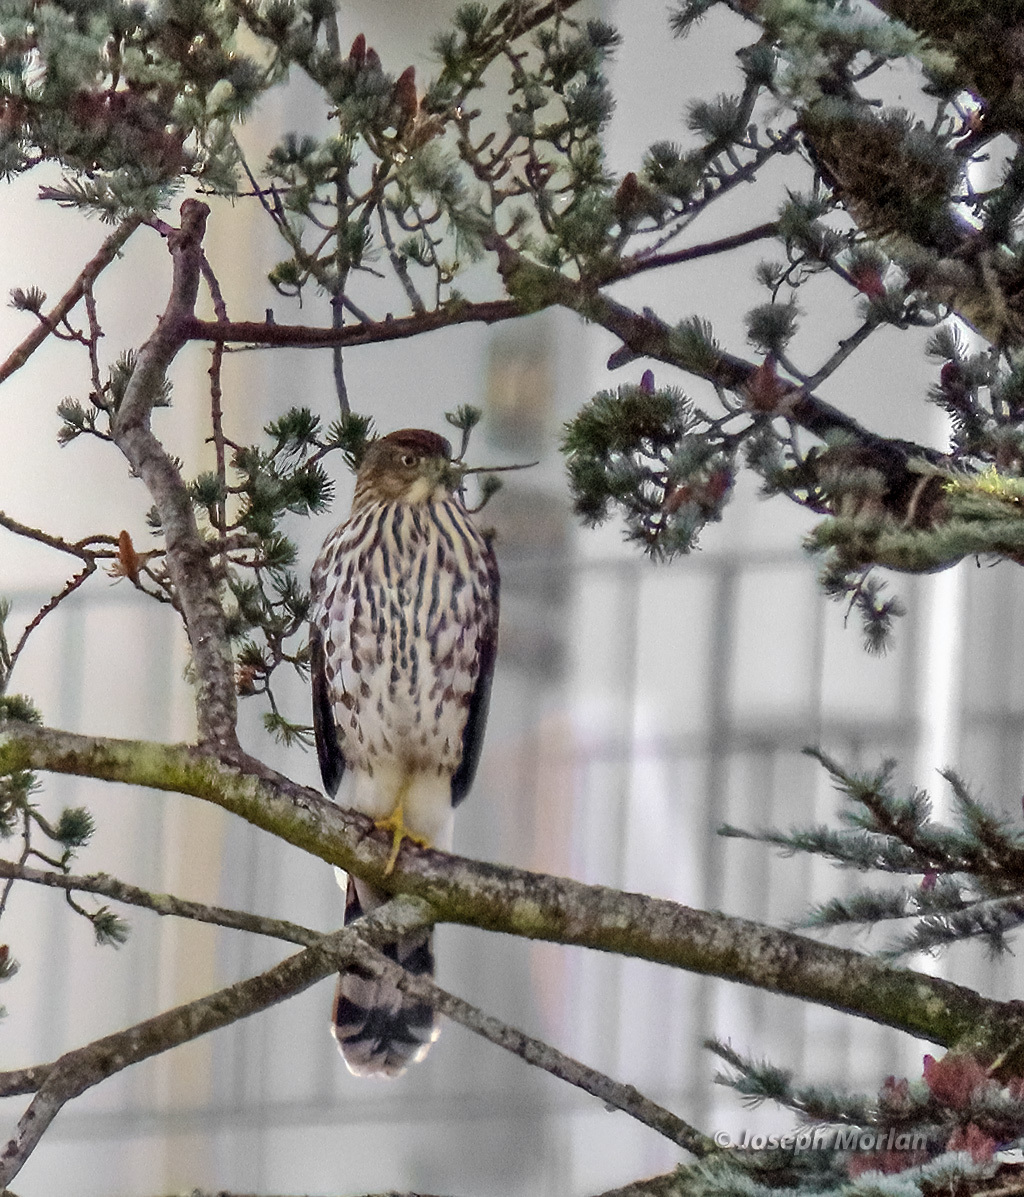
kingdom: Animalia
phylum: Chordata
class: Aves
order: Accipitriformes
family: Accipitridae
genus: Accipiter
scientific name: Accipiter cooperii
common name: Cooper's hawk
